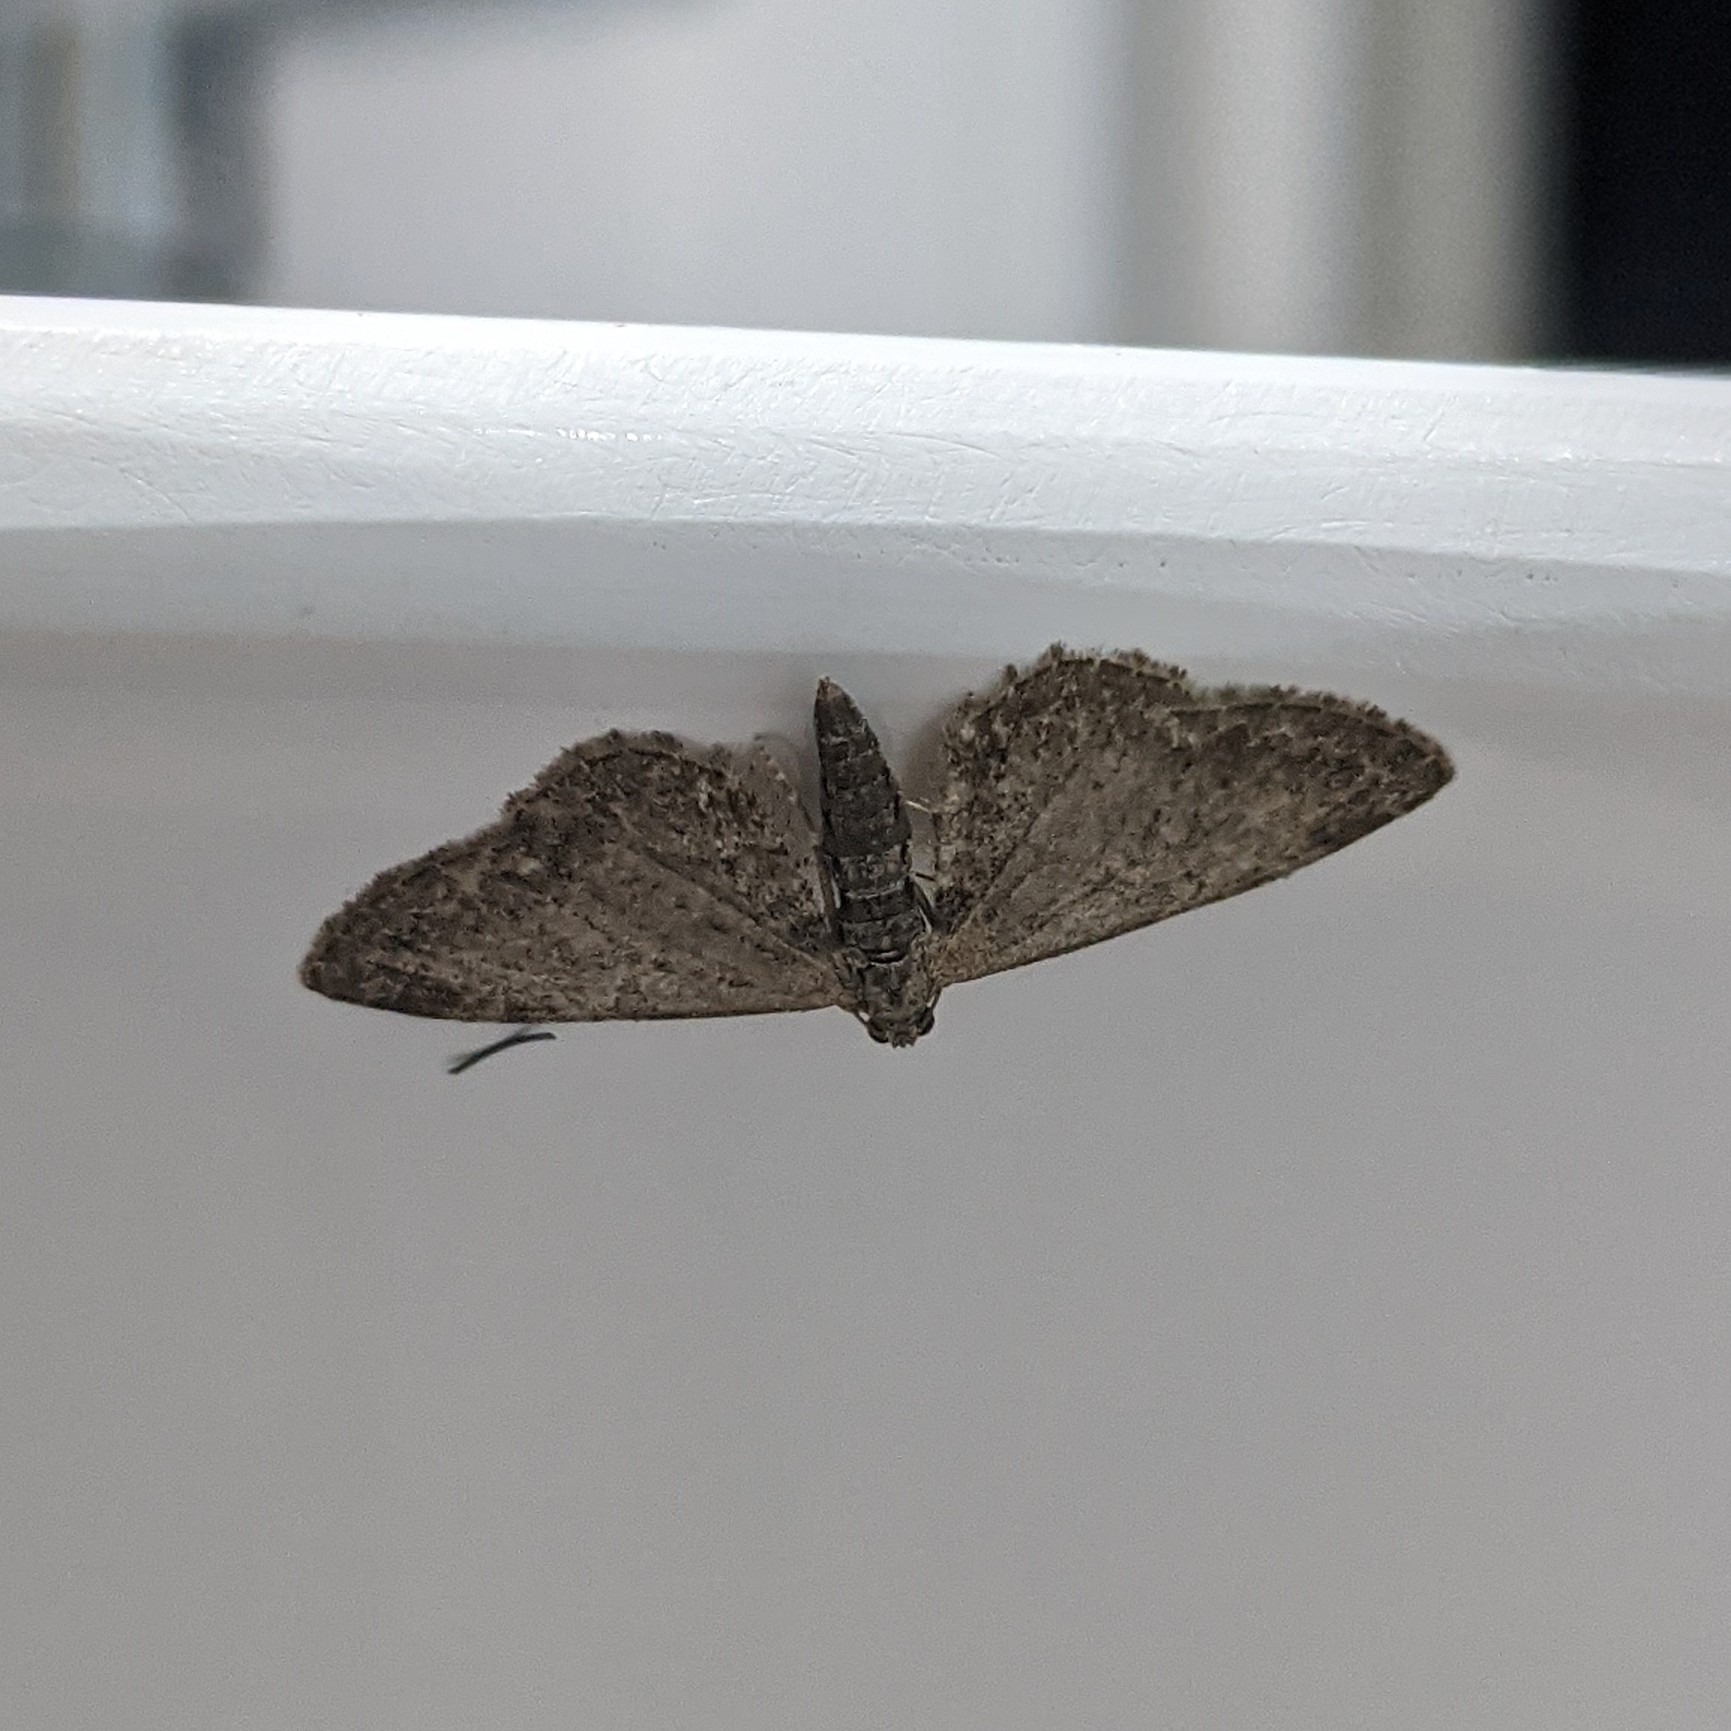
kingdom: Animalia
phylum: Arthropoda
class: Insecta
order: Lepidoptera
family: Geometridae
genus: Eupithecia
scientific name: Eupithecia vulgata
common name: Common pug
